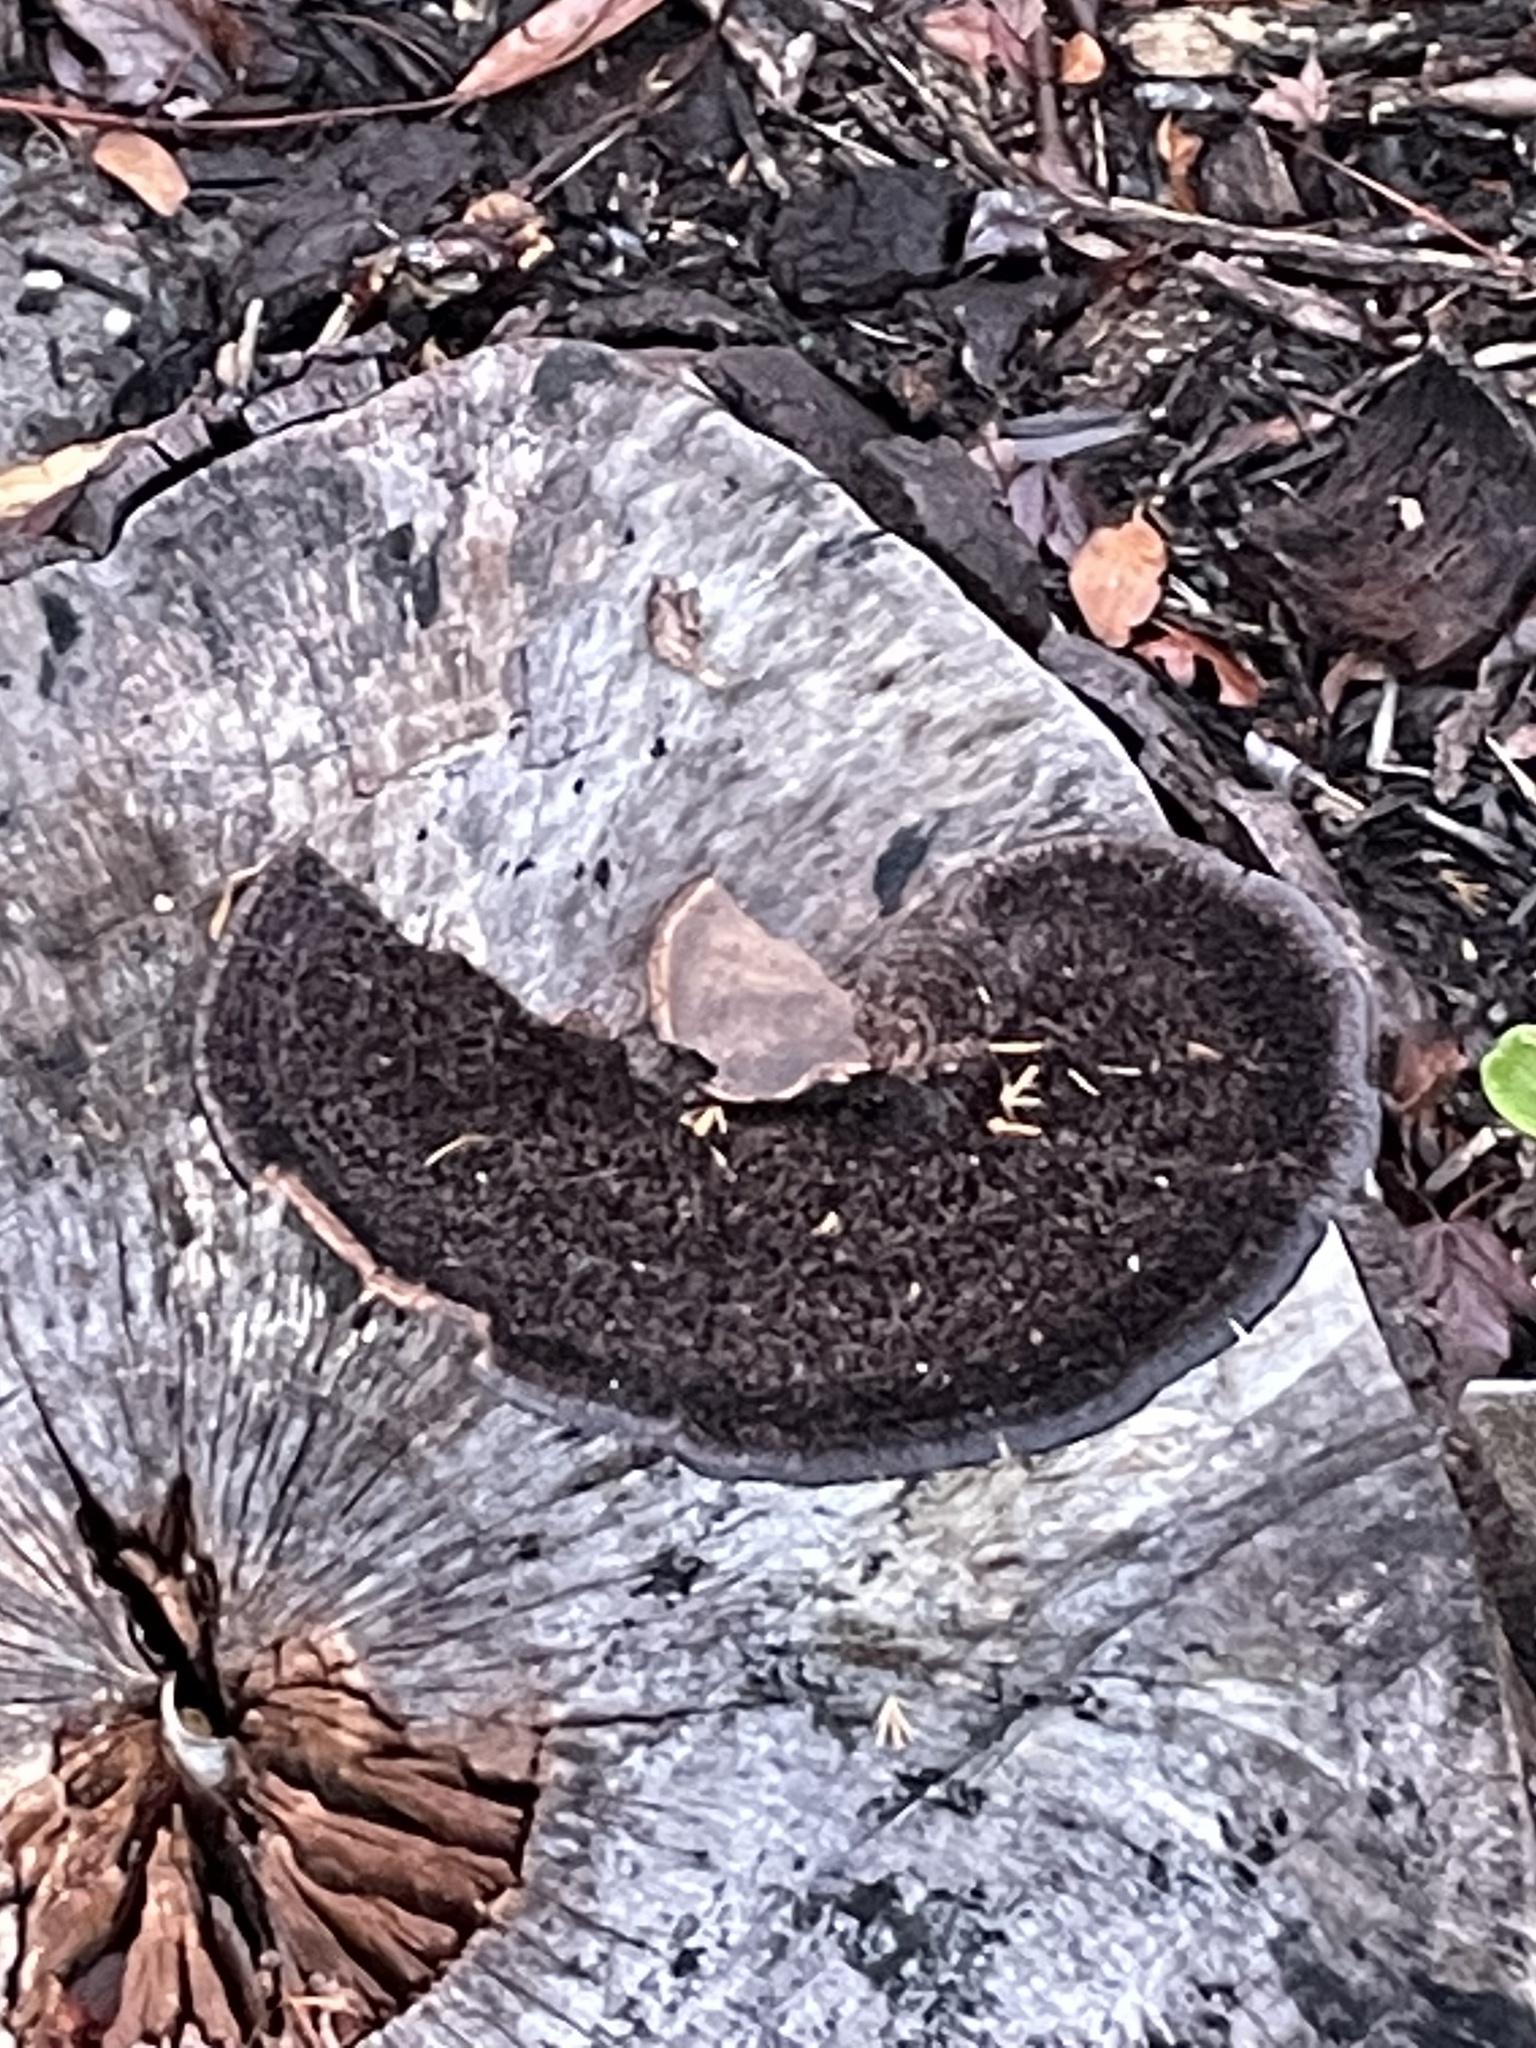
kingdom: Fungi
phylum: Basidiomycota
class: Agaricomycetes
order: Polyporales
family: Cerrenaceae
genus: Cerrena
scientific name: Cerrena hydnoides
